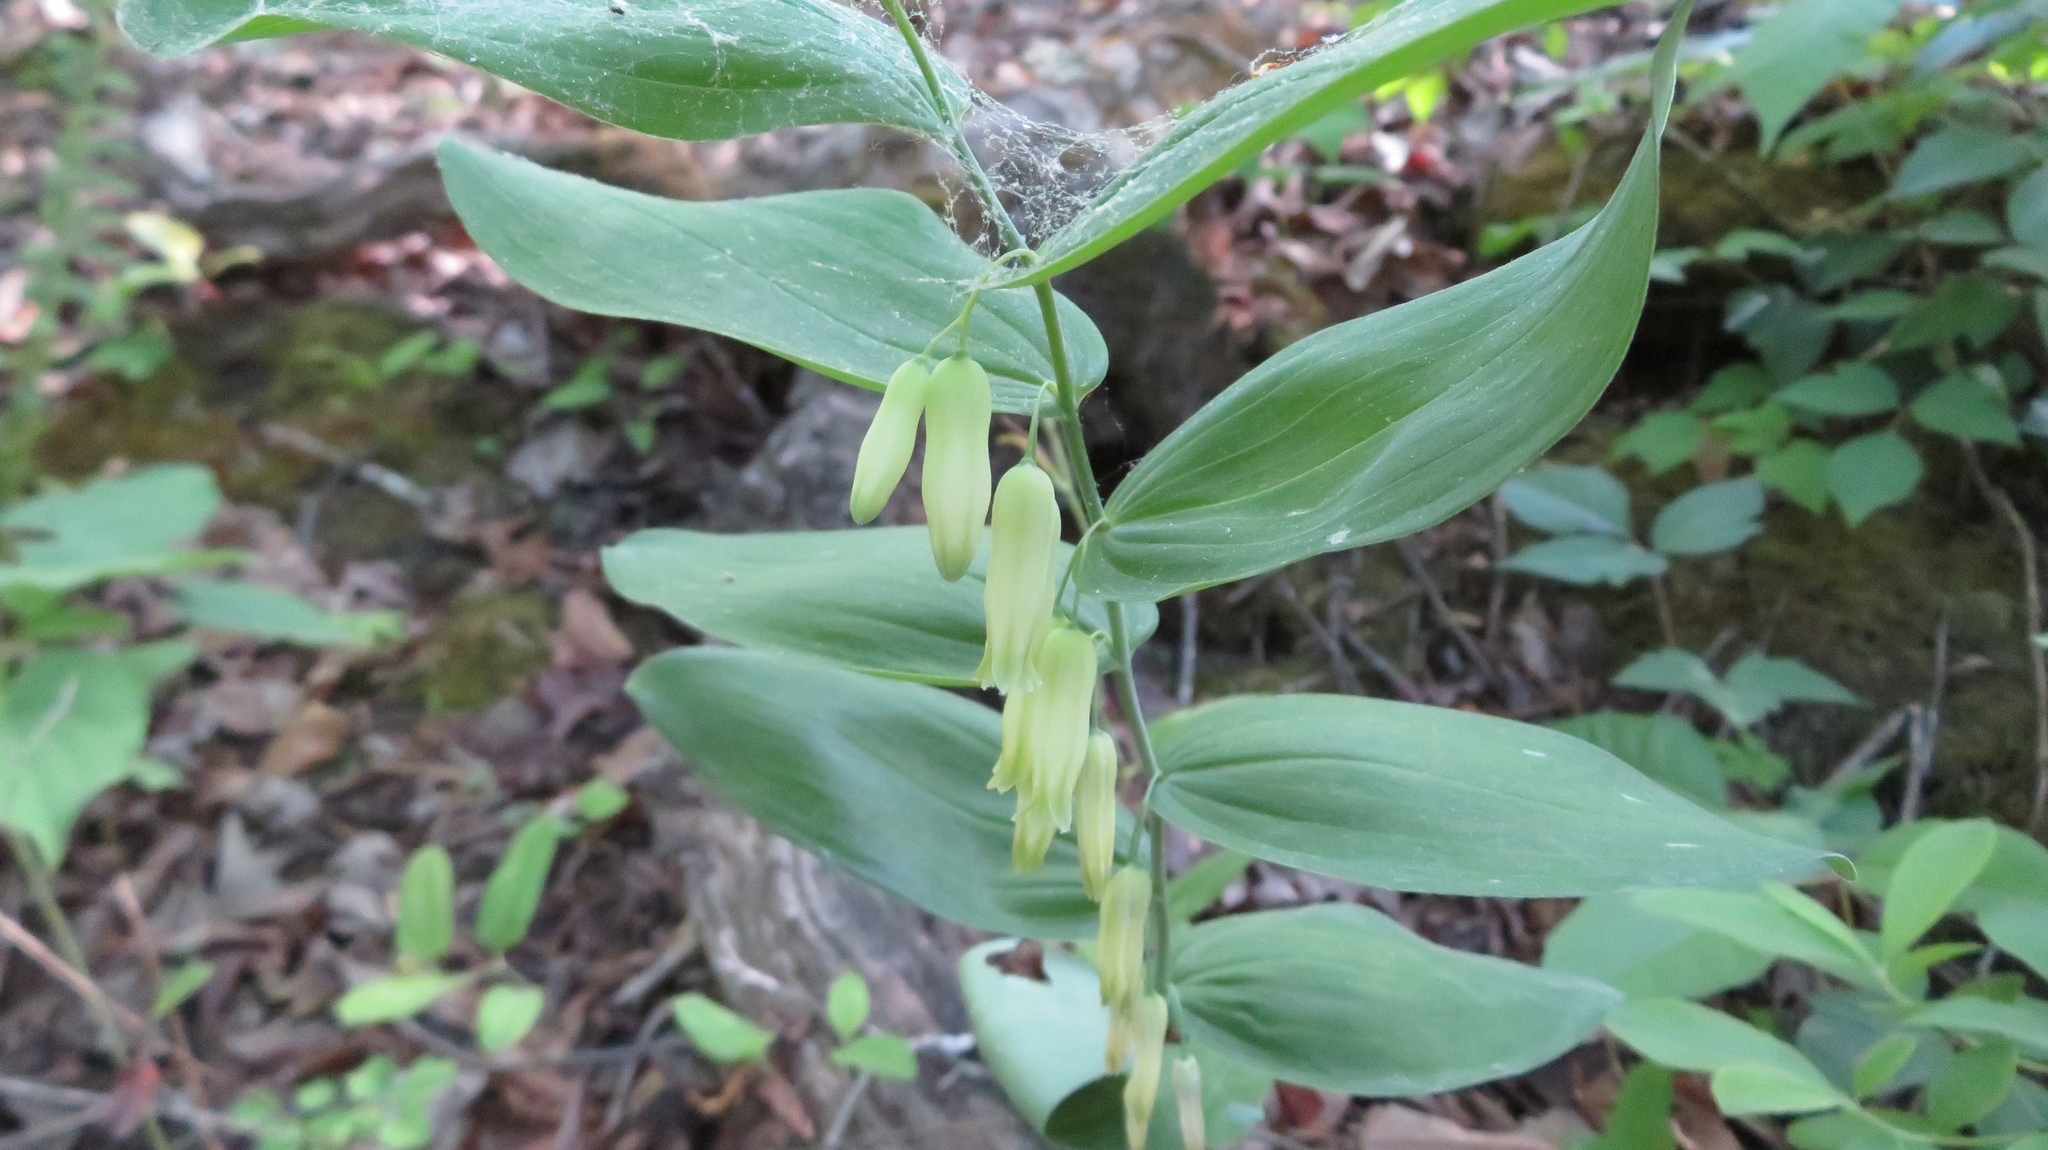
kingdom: Plantae
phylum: Tracheophyta
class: Liliopsida
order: Asparagales
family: Asparagaceae
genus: Polygonatum
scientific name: Polygonatum biflorum
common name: American solomon's-seal
